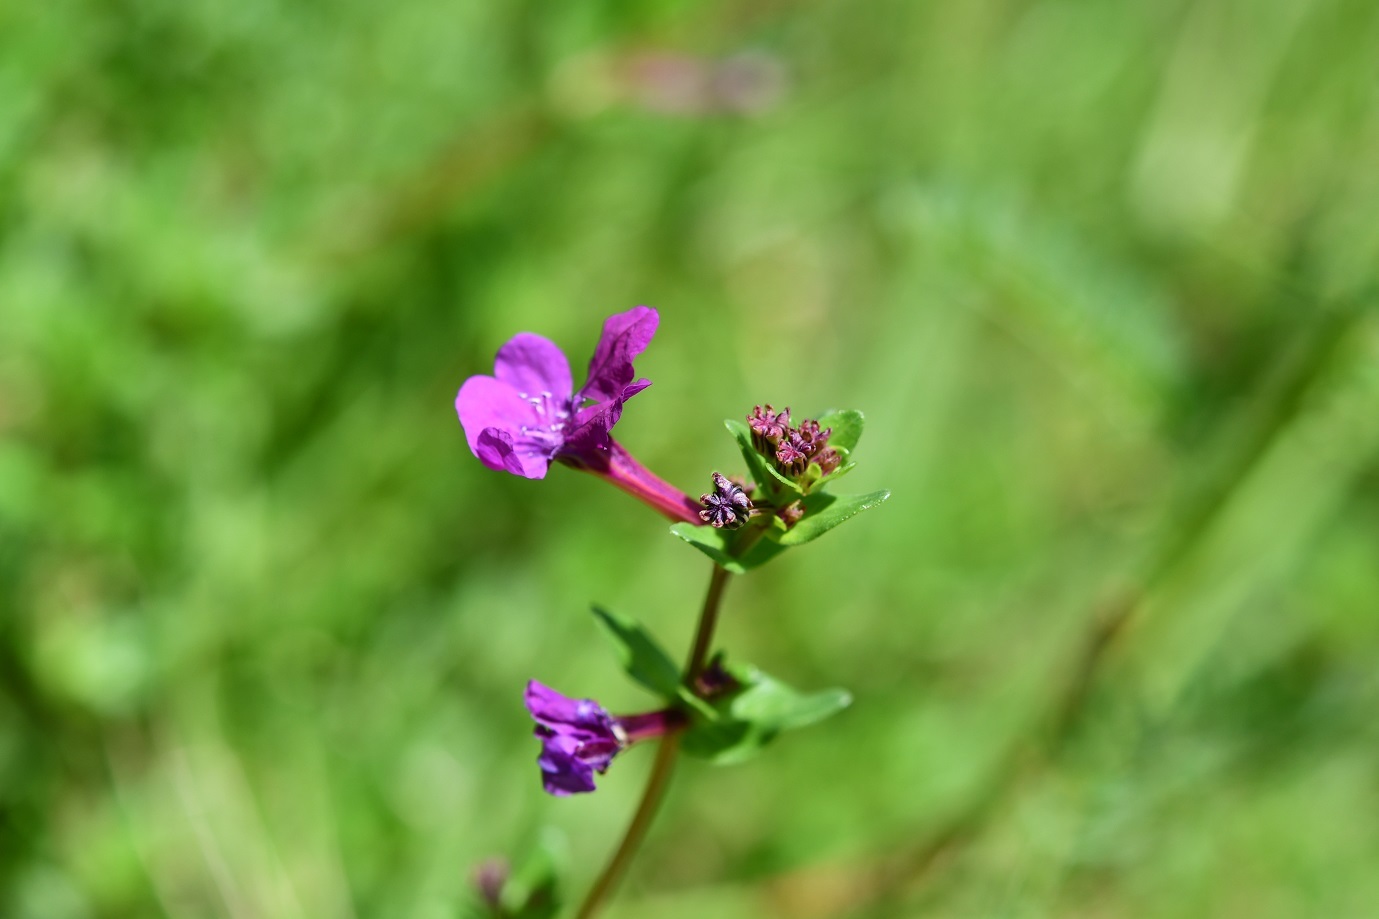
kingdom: Plantae
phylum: Tracheophyta
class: Magnoliopsida
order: Myrtales
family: Lythraceae
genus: Cuphea
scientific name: Cuphea aequipetala
